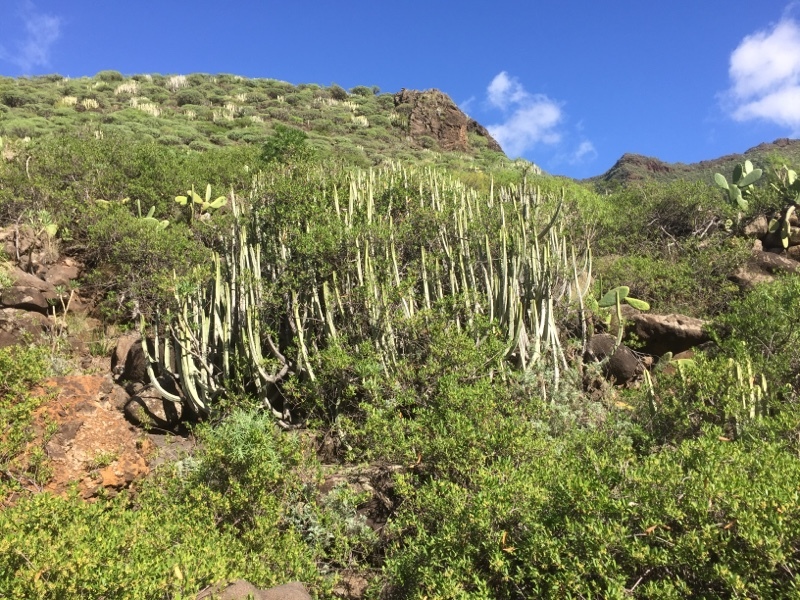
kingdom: Plantae
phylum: Tracheophyta
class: Magnoliopsida
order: Malpighiales
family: Euphorbiaceae
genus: Euphorbia
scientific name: Euphorbia canariensis
